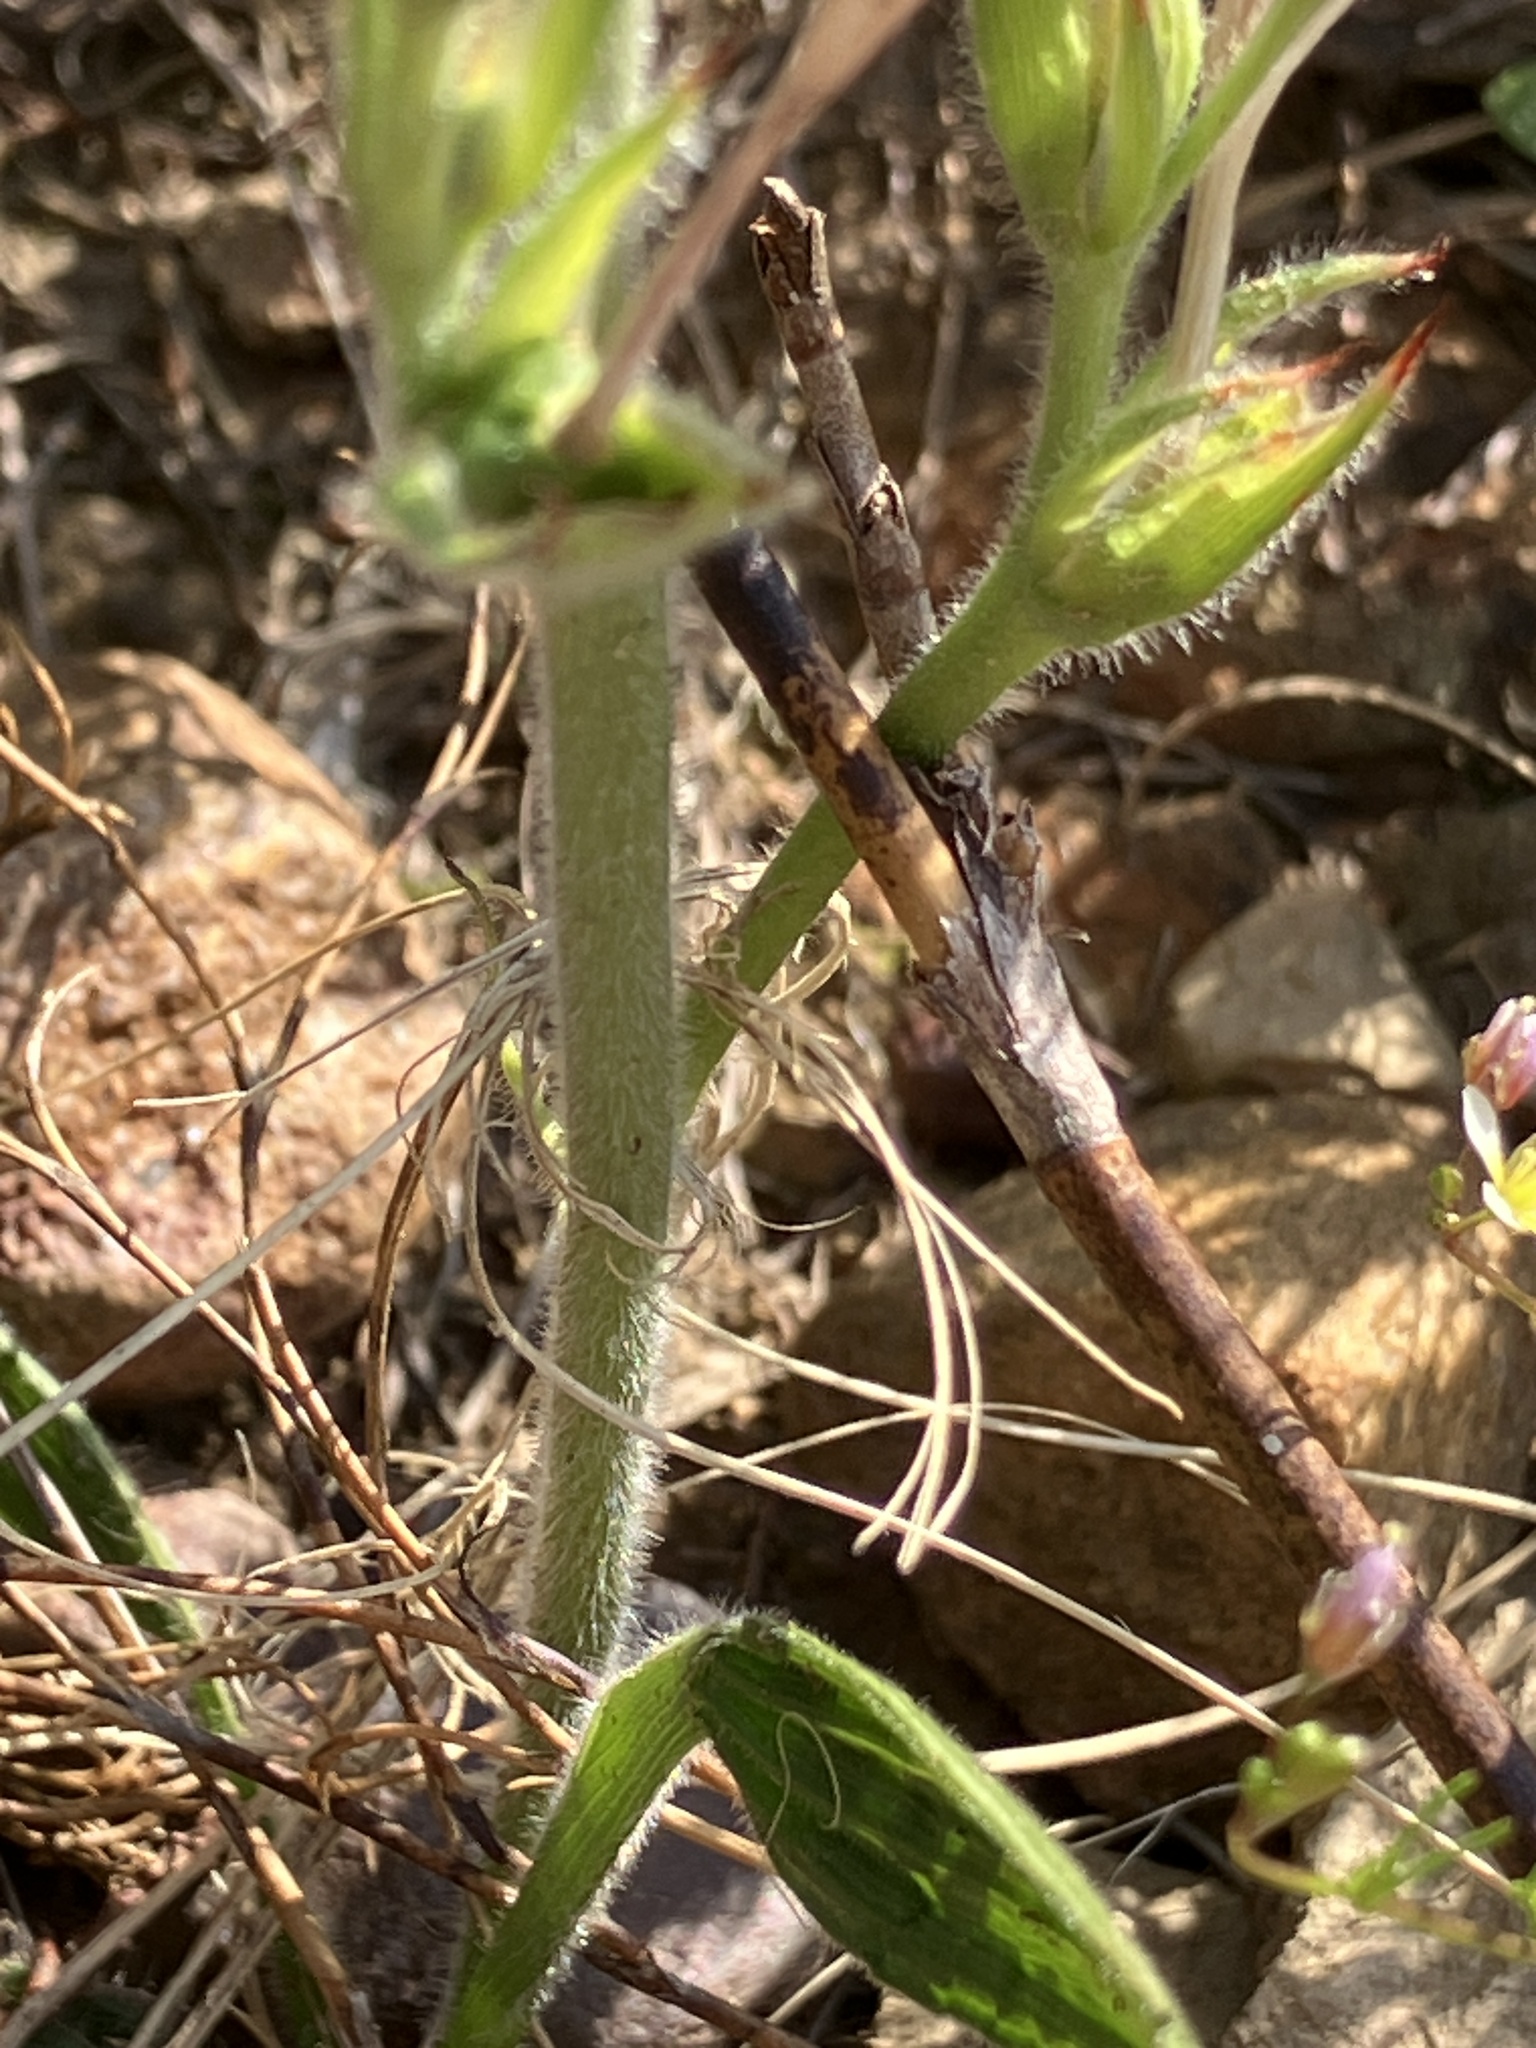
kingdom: Plantae
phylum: Tracheophyta
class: Liliopsida
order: Asparagales
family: Iridaceae
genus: Babiana
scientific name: Babiana patula
